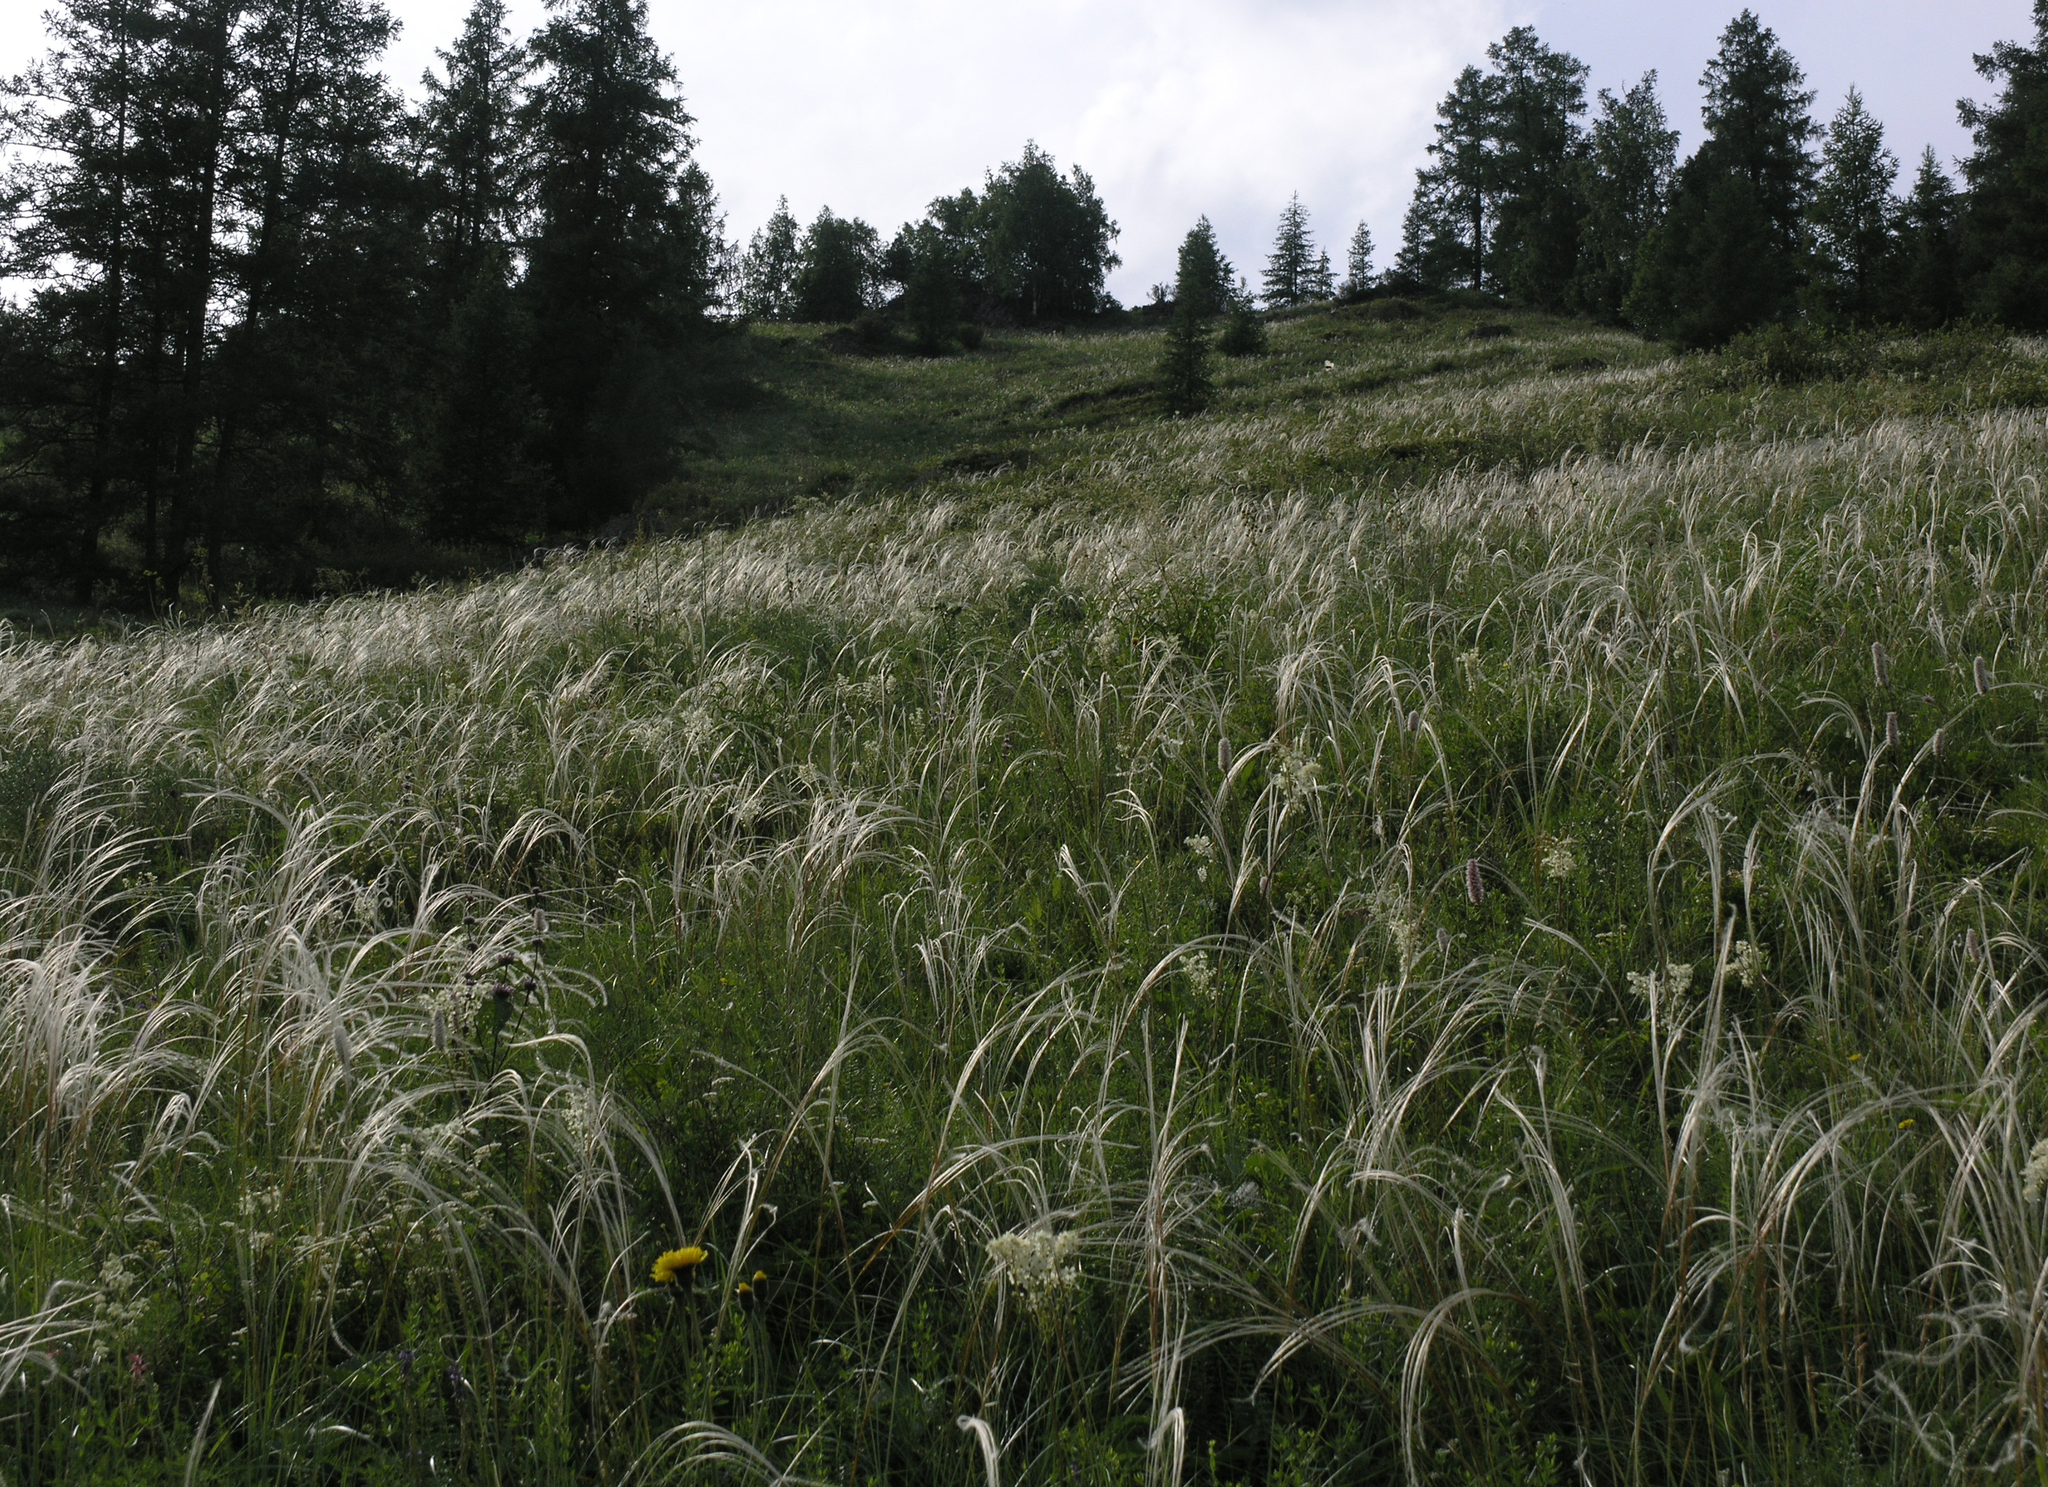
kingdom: Plantae
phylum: Tracheophyta
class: Liliopsida
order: Poales
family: Poaceae
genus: Stipa
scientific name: Stipa pennata
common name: European feather grass
